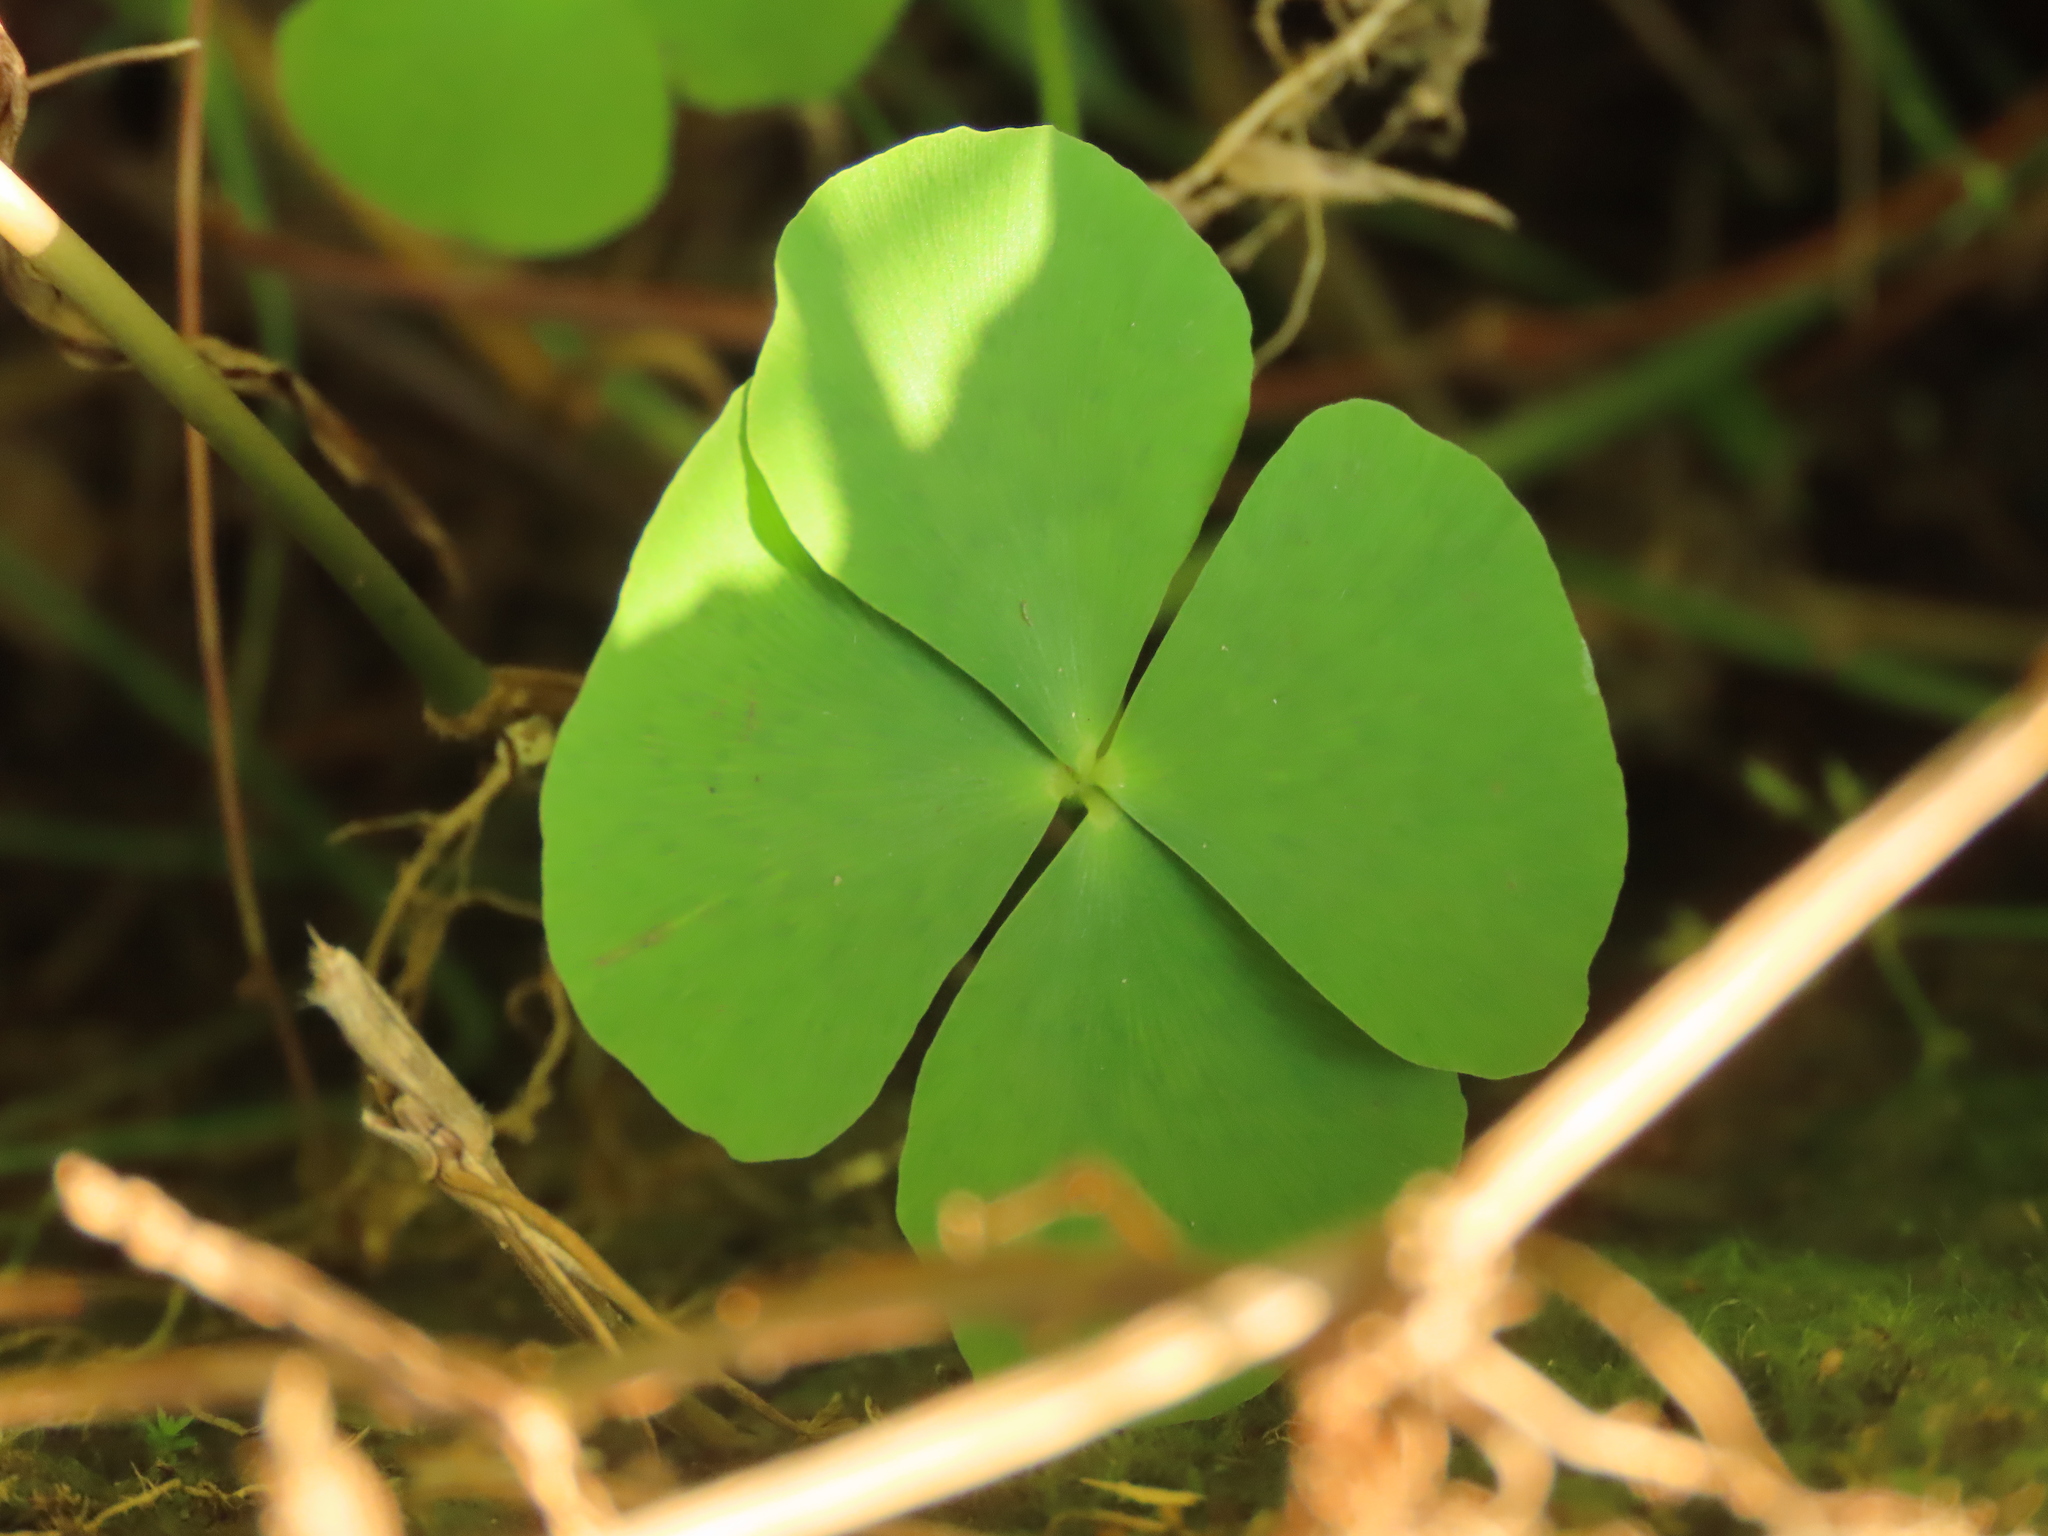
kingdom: Plantae
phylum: Tracheophyta
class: Polypodiopsida
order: Salviniales
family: Marsileaceae
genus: Marsilea
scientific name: Marsilea minuta
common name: Dwarf waterclover
